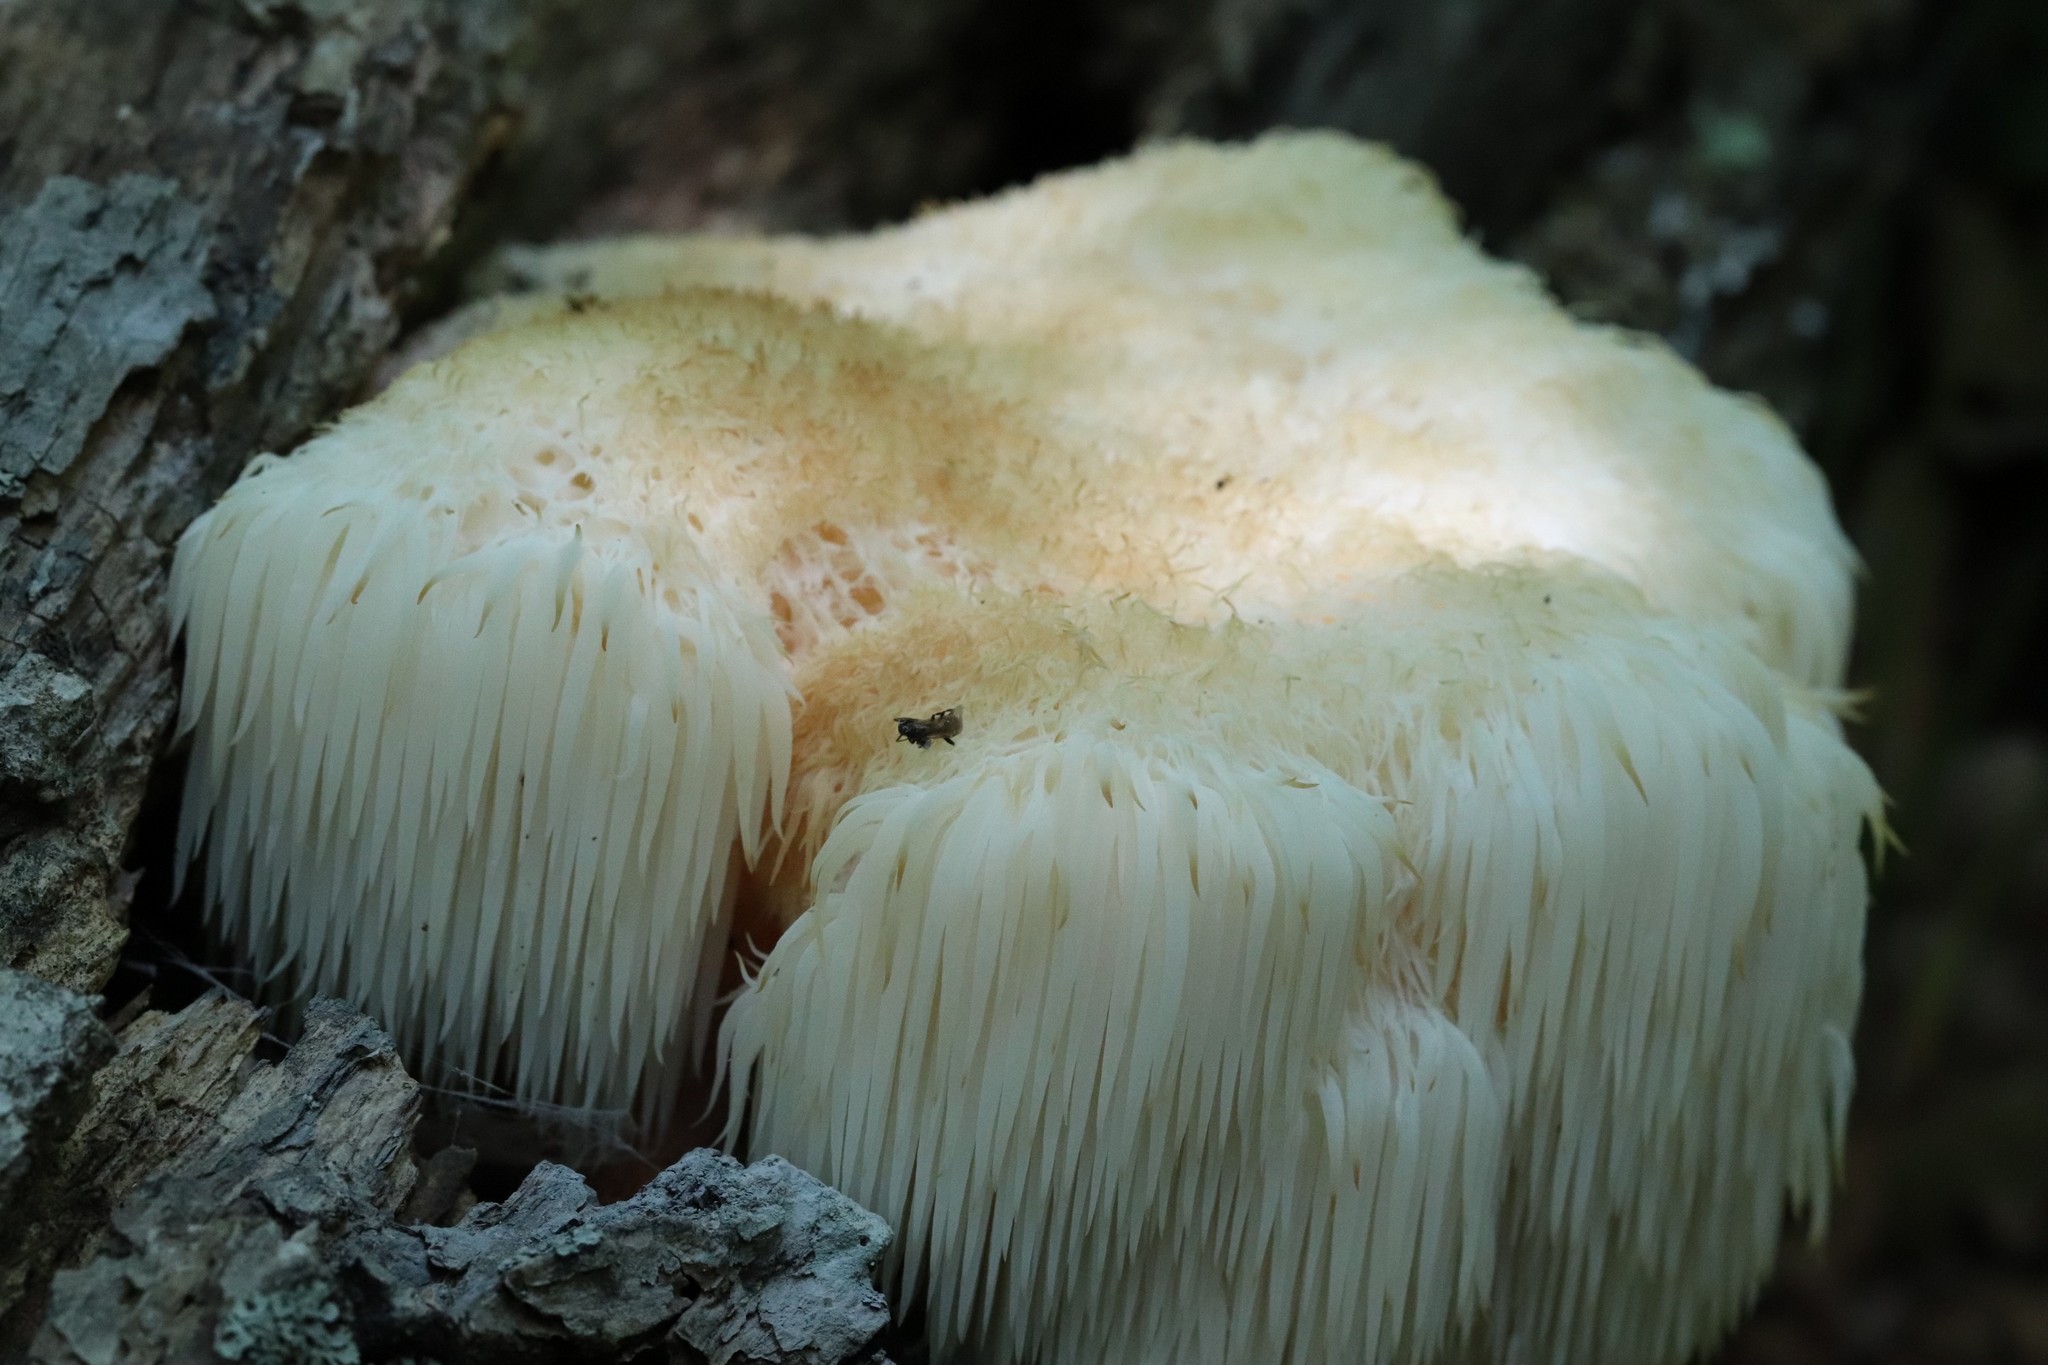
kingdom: Fungi
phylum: Basidiomycota
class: Agaricomycetes
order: Russulales
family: Hericiaceae
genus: Hericium
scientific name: Hericium erinaceus
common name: Bearded tooth
